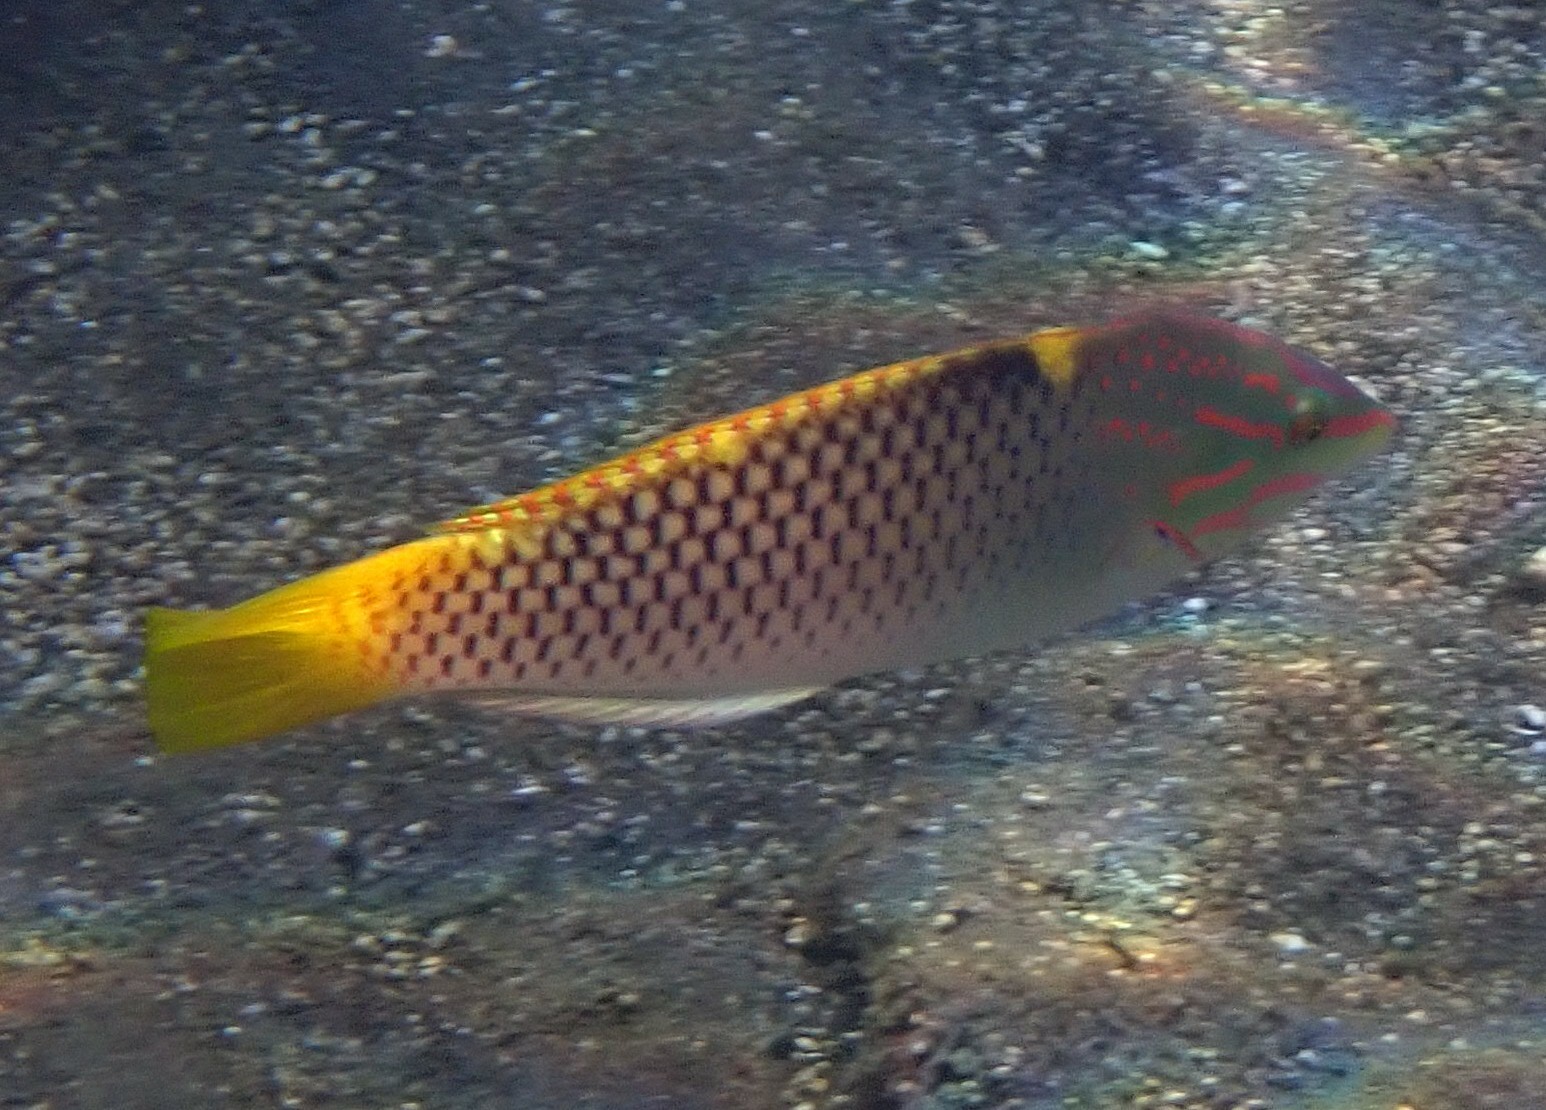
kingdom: Animalia
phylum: Chordata
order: Perciformes
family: Labridae
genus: Halichoeres
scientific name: Halichoeres hortulanus
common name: Checkerboard wrasse
